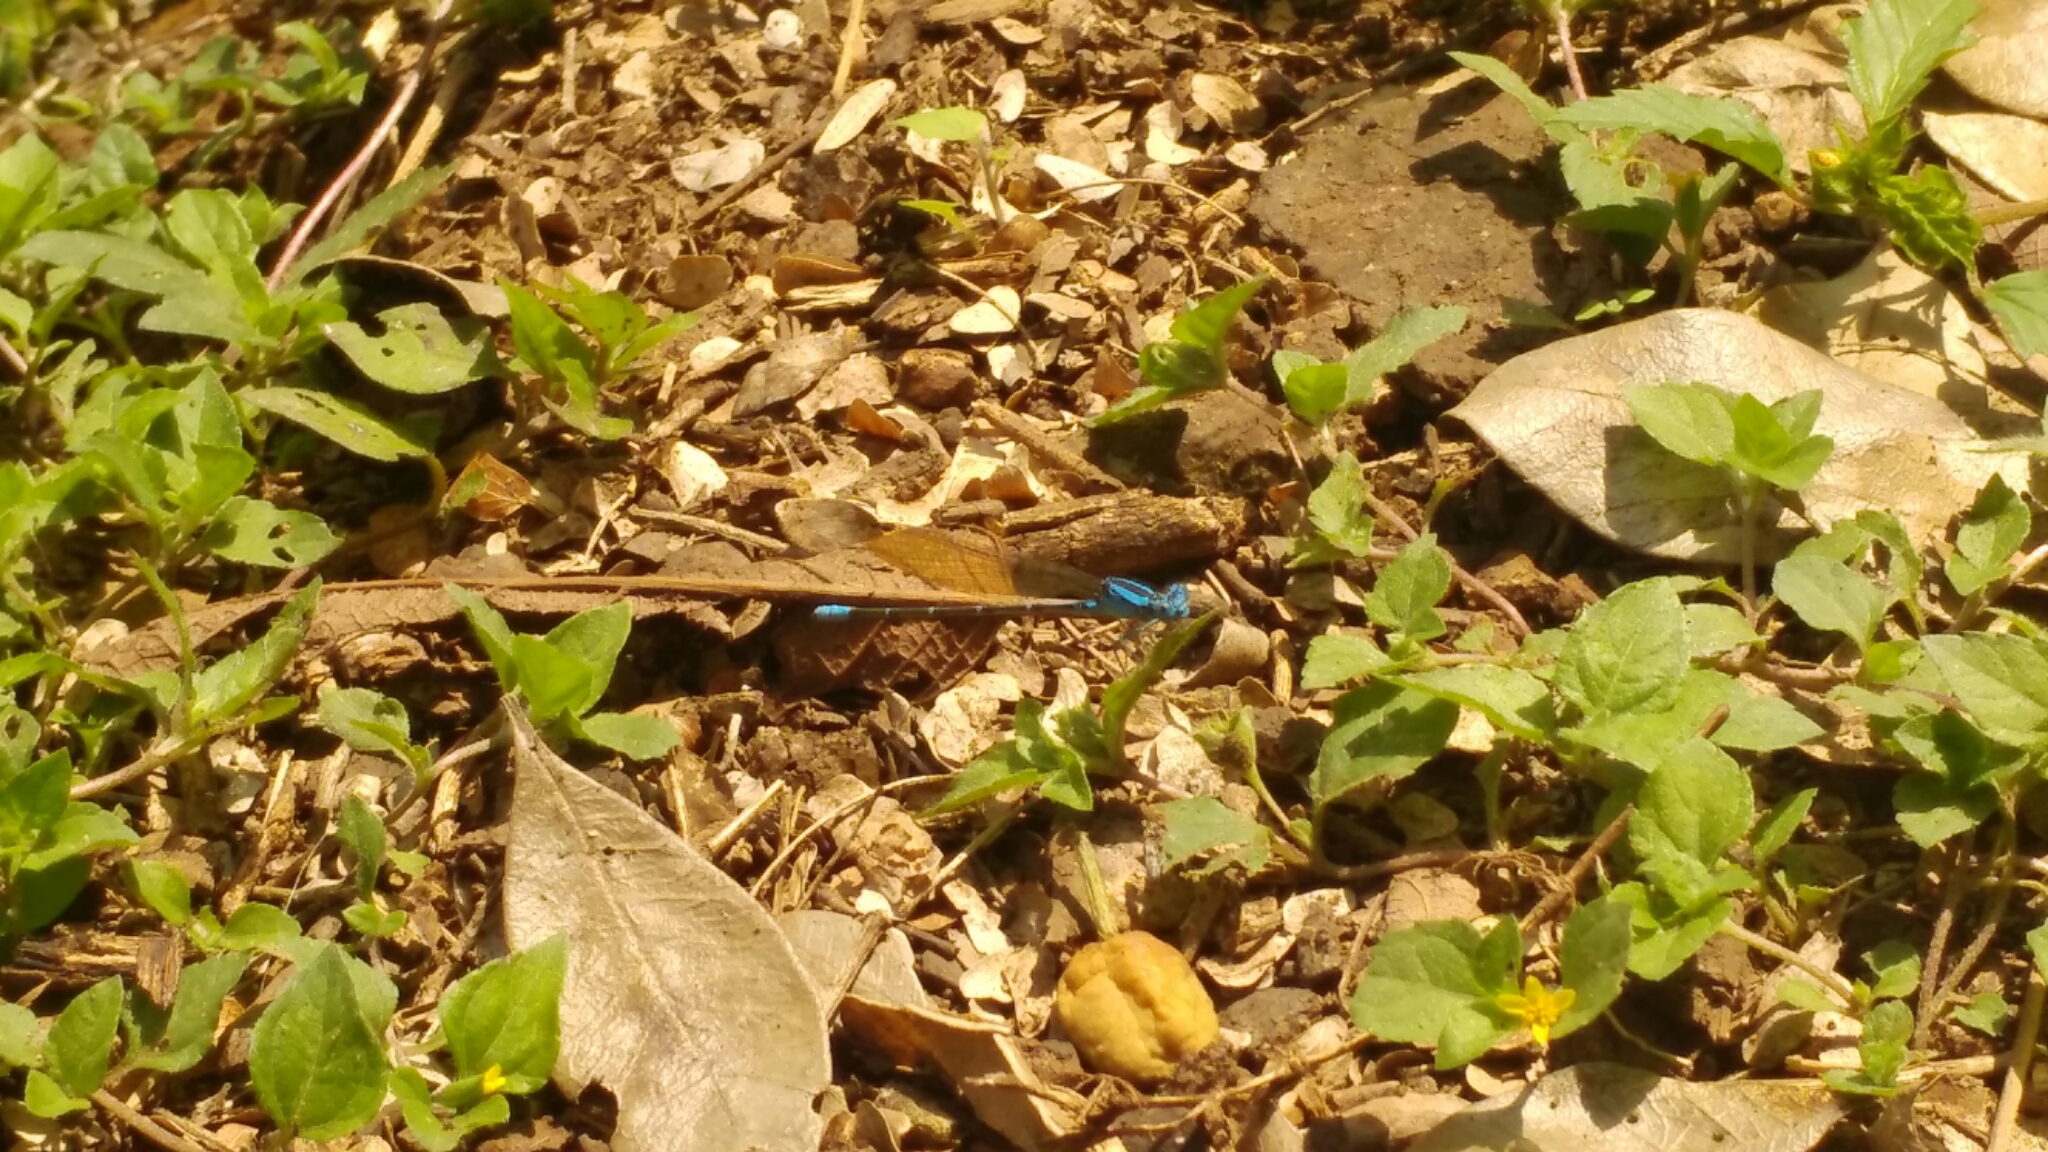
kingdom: Animalia
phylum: Arthropoda
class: Insecta
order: Odonata
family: Coenagrionidae
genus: Argia
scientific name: Argia rhoadsi
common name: Golden-winged dancer
